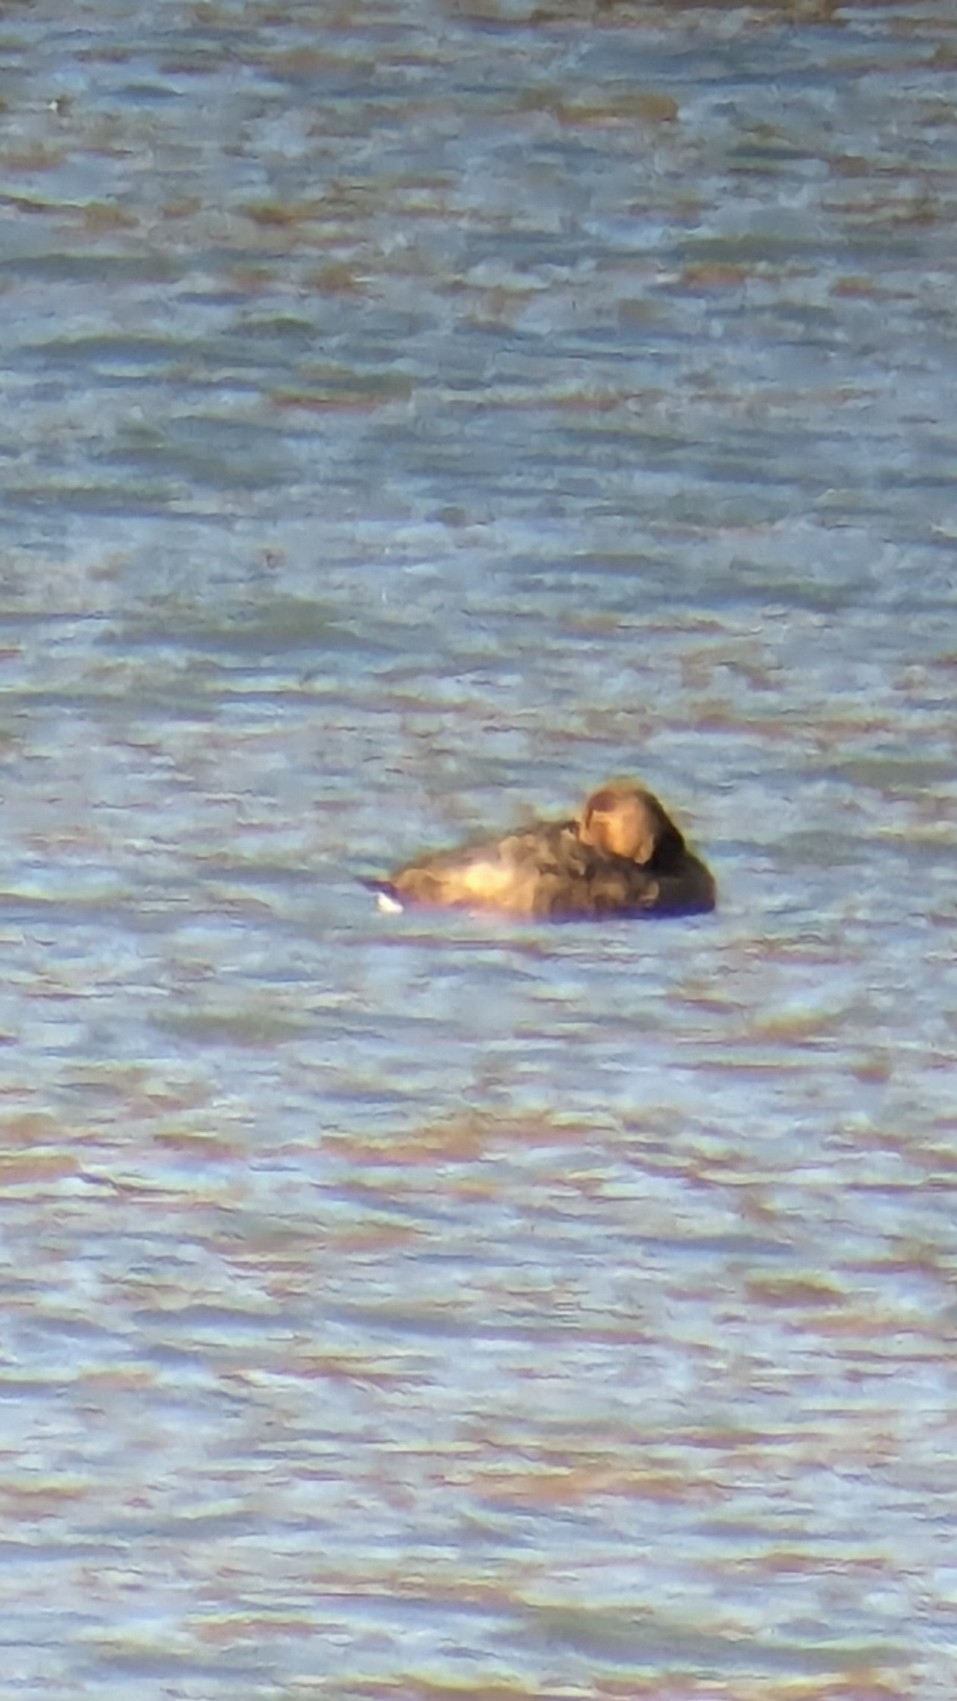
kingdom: Animalia
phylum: Chordata
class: Aves
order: Anseriformes
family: Anatidae
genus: Aythya
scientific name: Aythya americana
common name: Redhead
